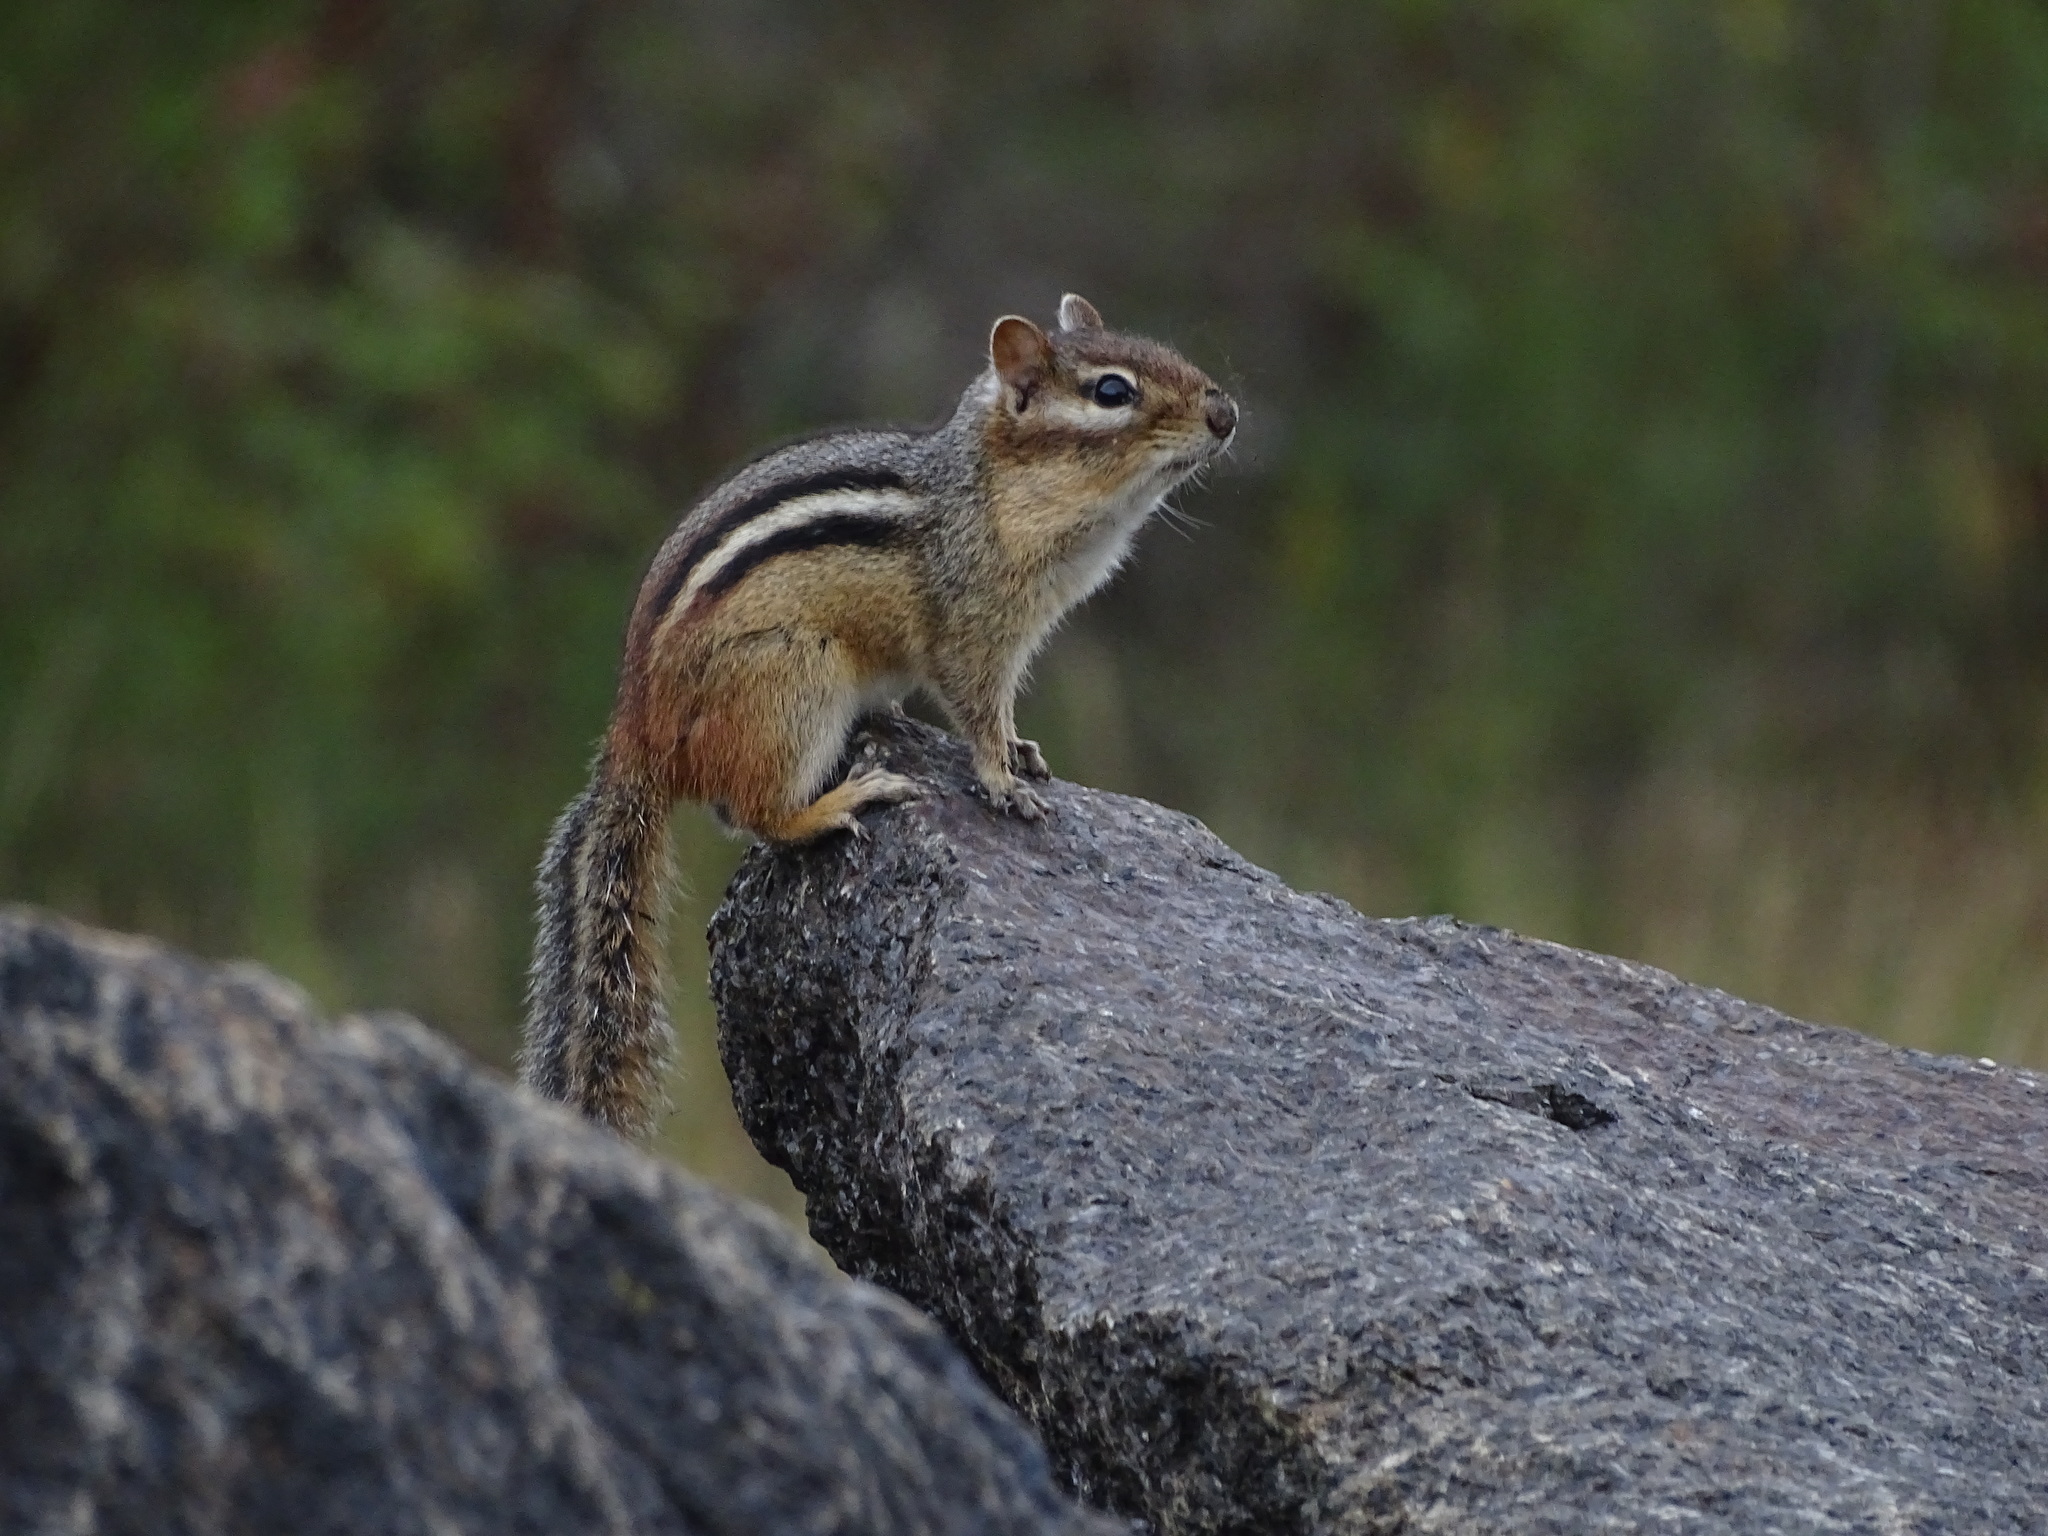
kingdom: Animalia
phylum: Chordata
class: Mammalia
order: Rodentia
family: Sciuridae
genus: Tamias
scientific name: Tamias striatus
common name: Eastern chipmunk
